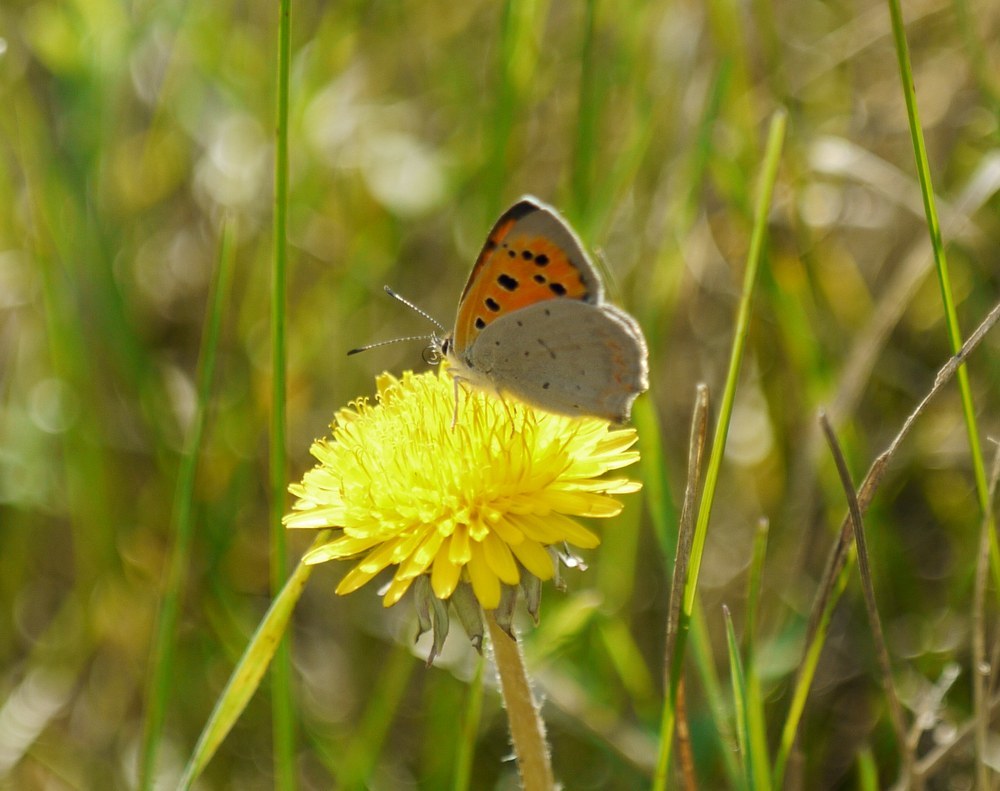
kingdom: Animalia
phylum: Arthropoda
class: Insecta
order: Lepidoptera
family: Lycaenidae
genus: Lycaena
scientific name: Lycaena phlaeas
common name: Small copper
